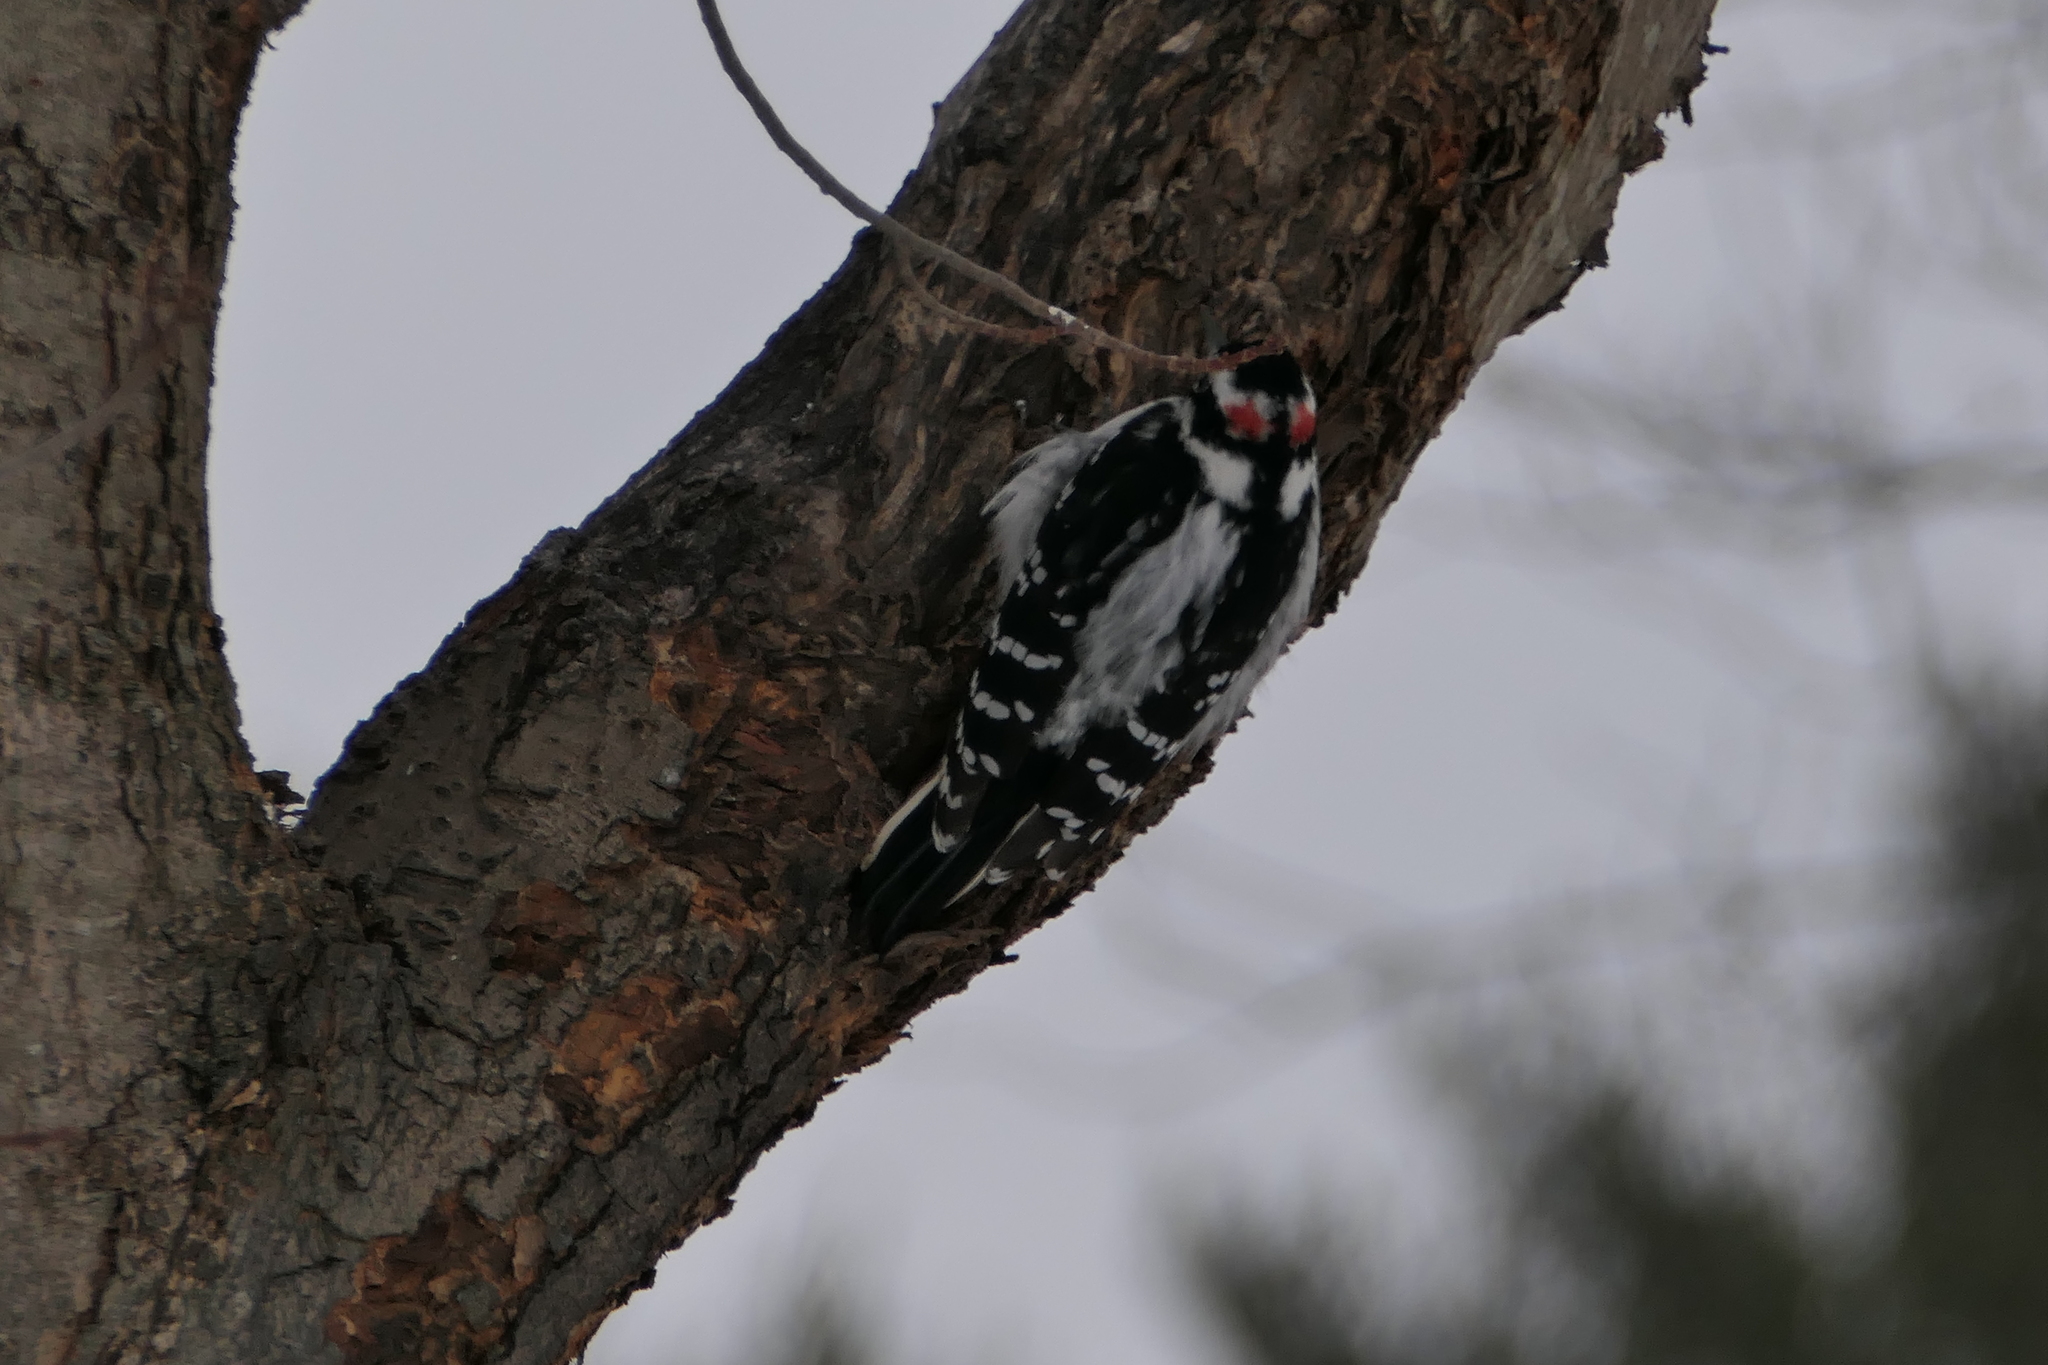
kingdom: Animalia
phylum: Chordata
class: Aves
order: Piciformes
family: Picidae
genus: Leuconotopicus
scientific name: Leuconotopicus villosus
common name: Hairy woodpecker
